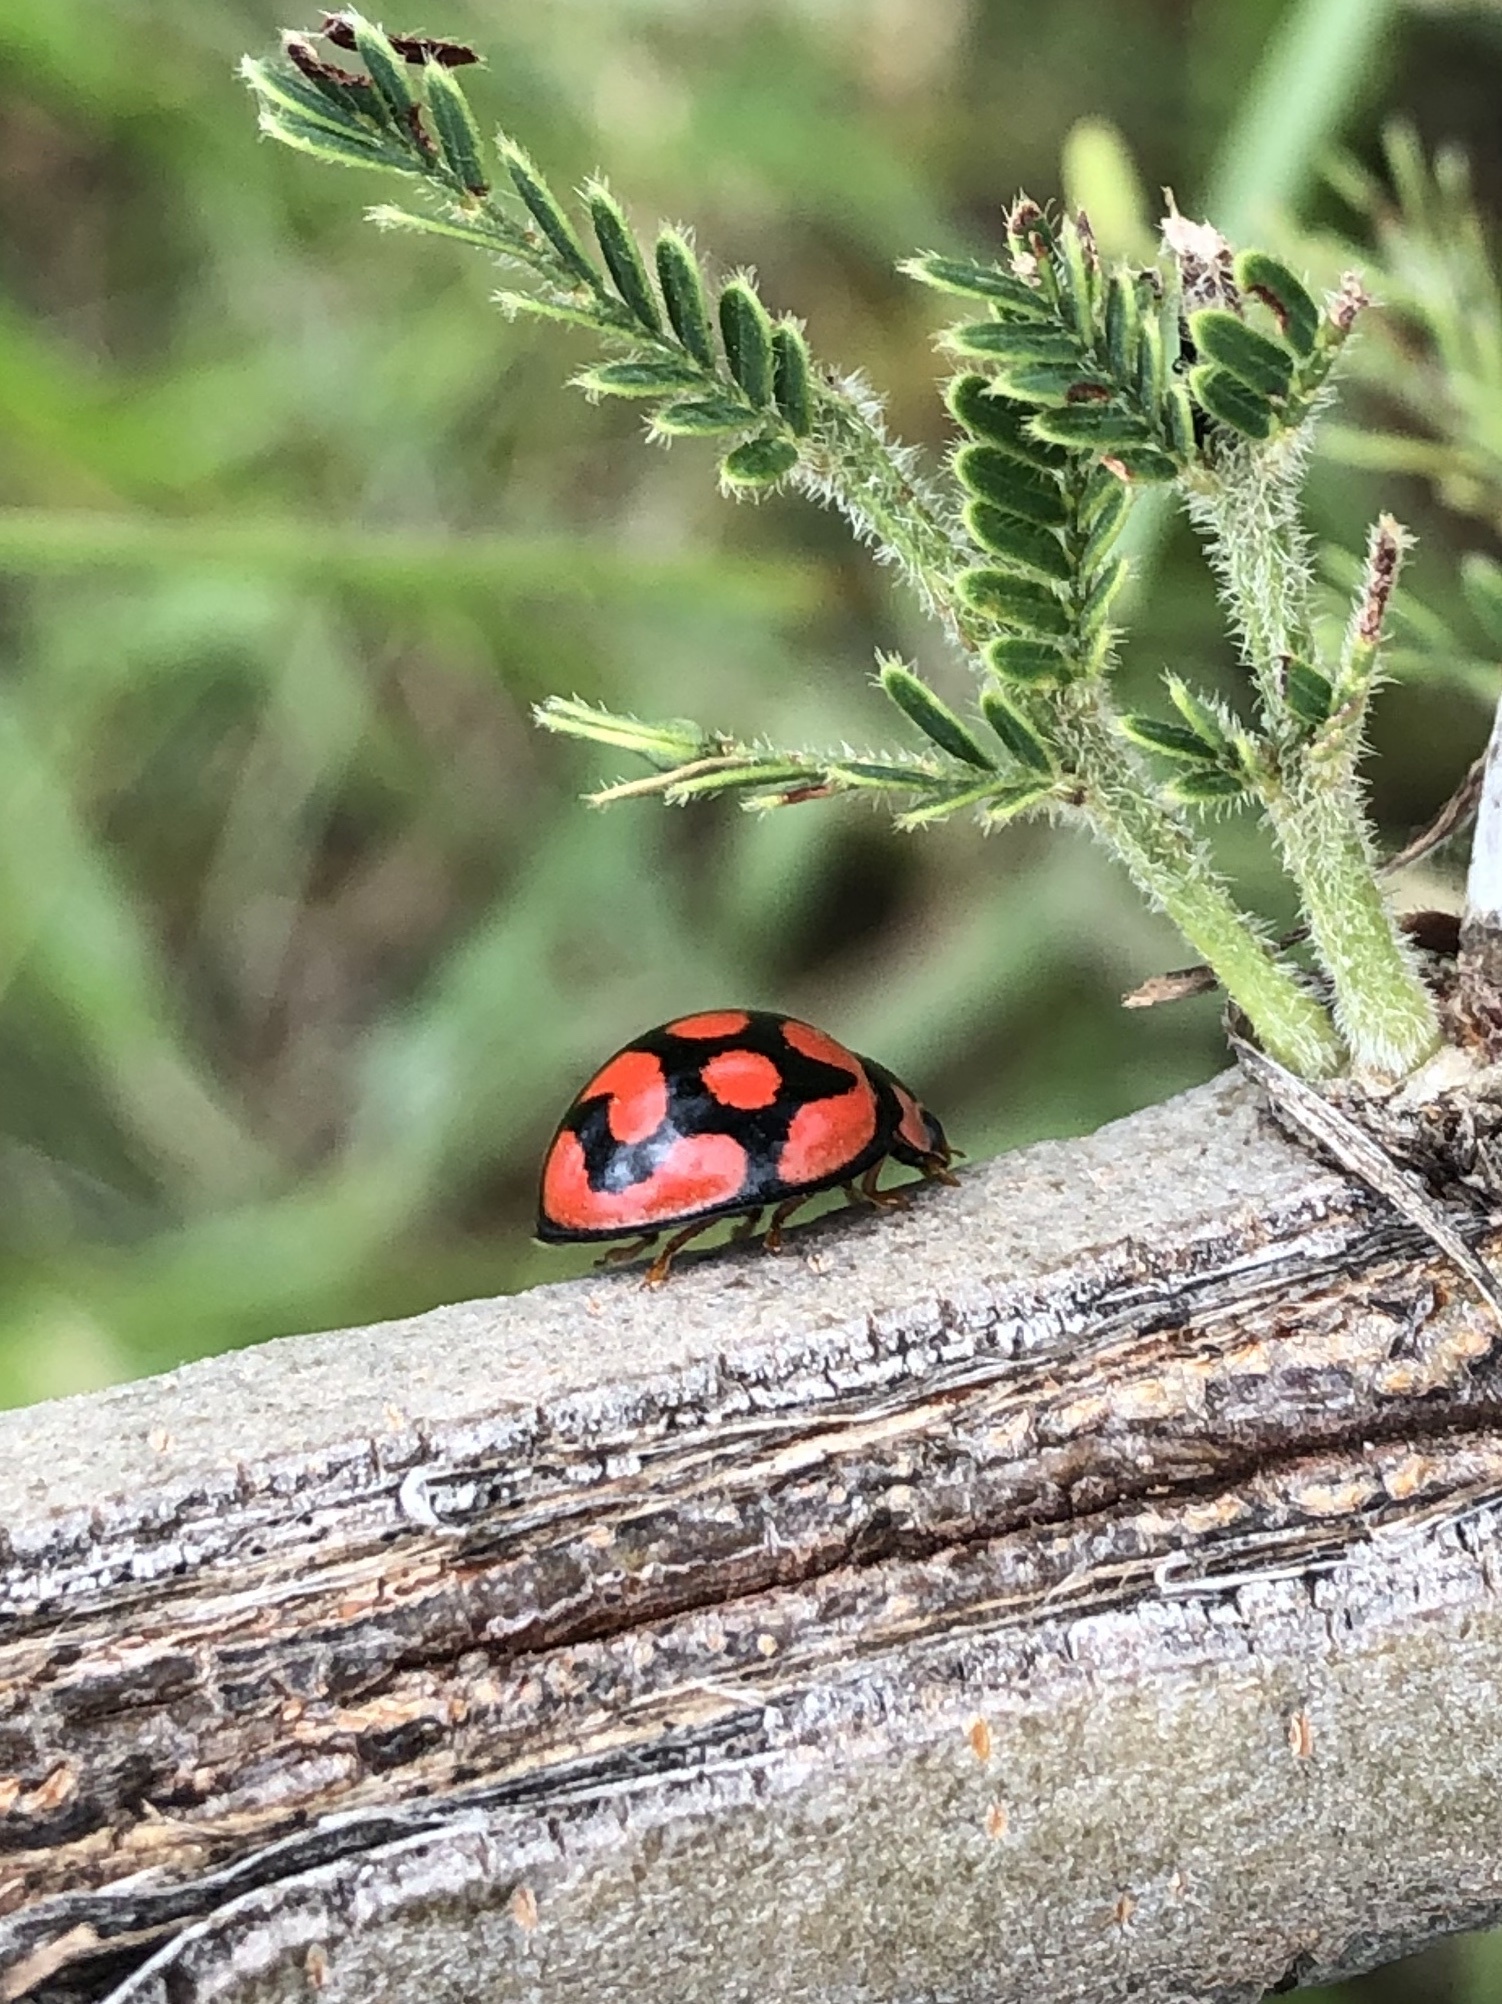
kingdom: Animalia
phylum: Arthropoda
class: Insecta
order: Coleoptera
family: Coccinellidae
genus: Cheilomenes
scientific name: Cheilomenes lunata
